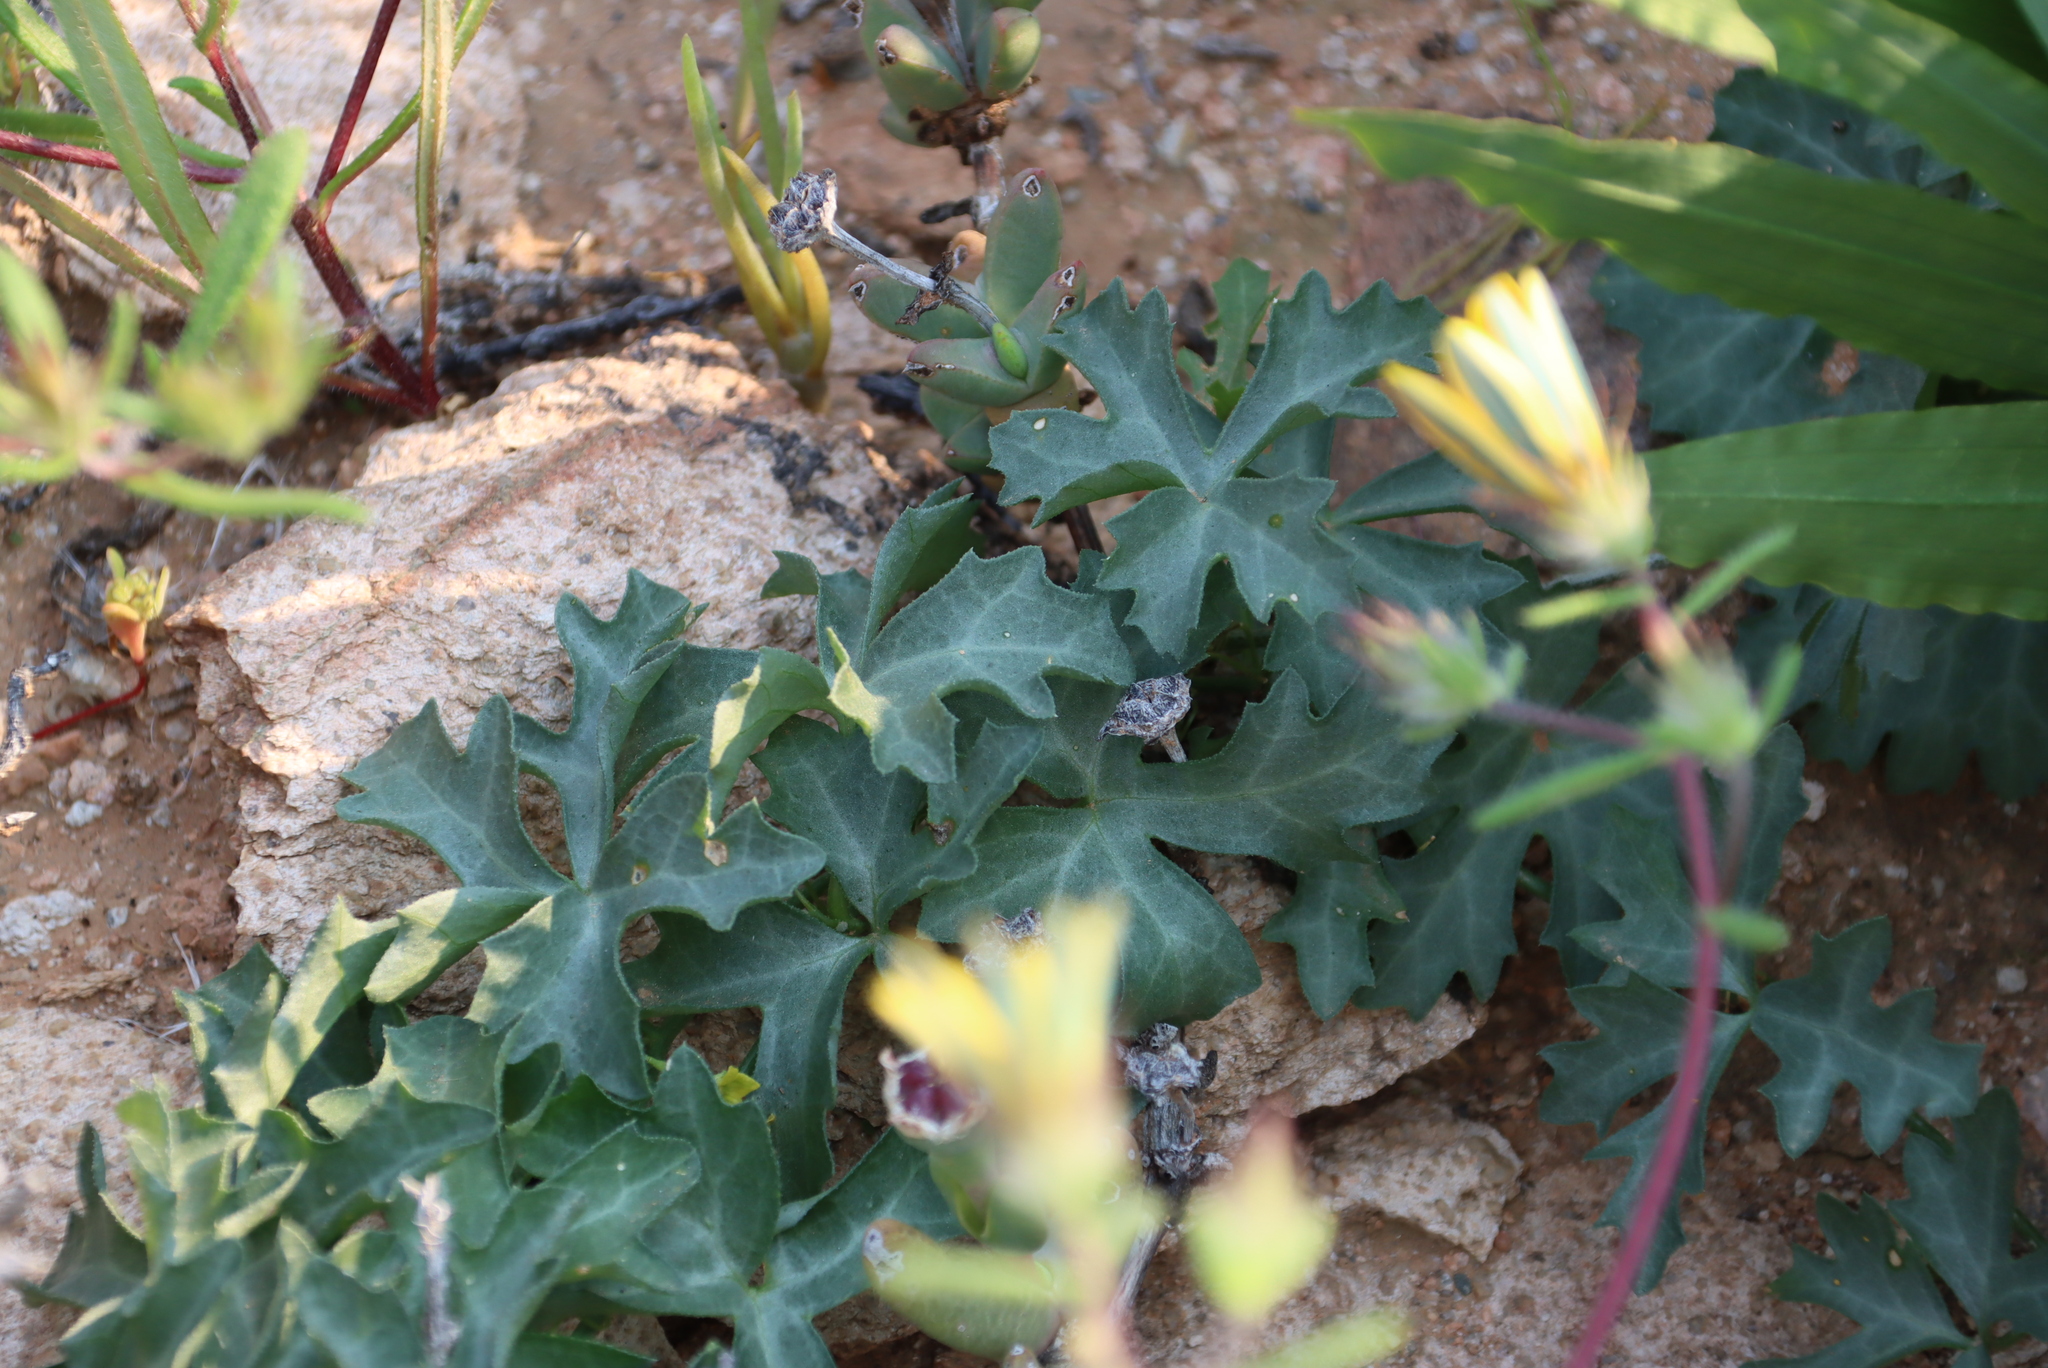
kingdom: Plantae
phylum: Tracheophyta
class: Magnoliopsida
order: Cucurbitales
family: Cucurbitaceae
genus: Kedrostis
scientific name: Kedrostis capensis
